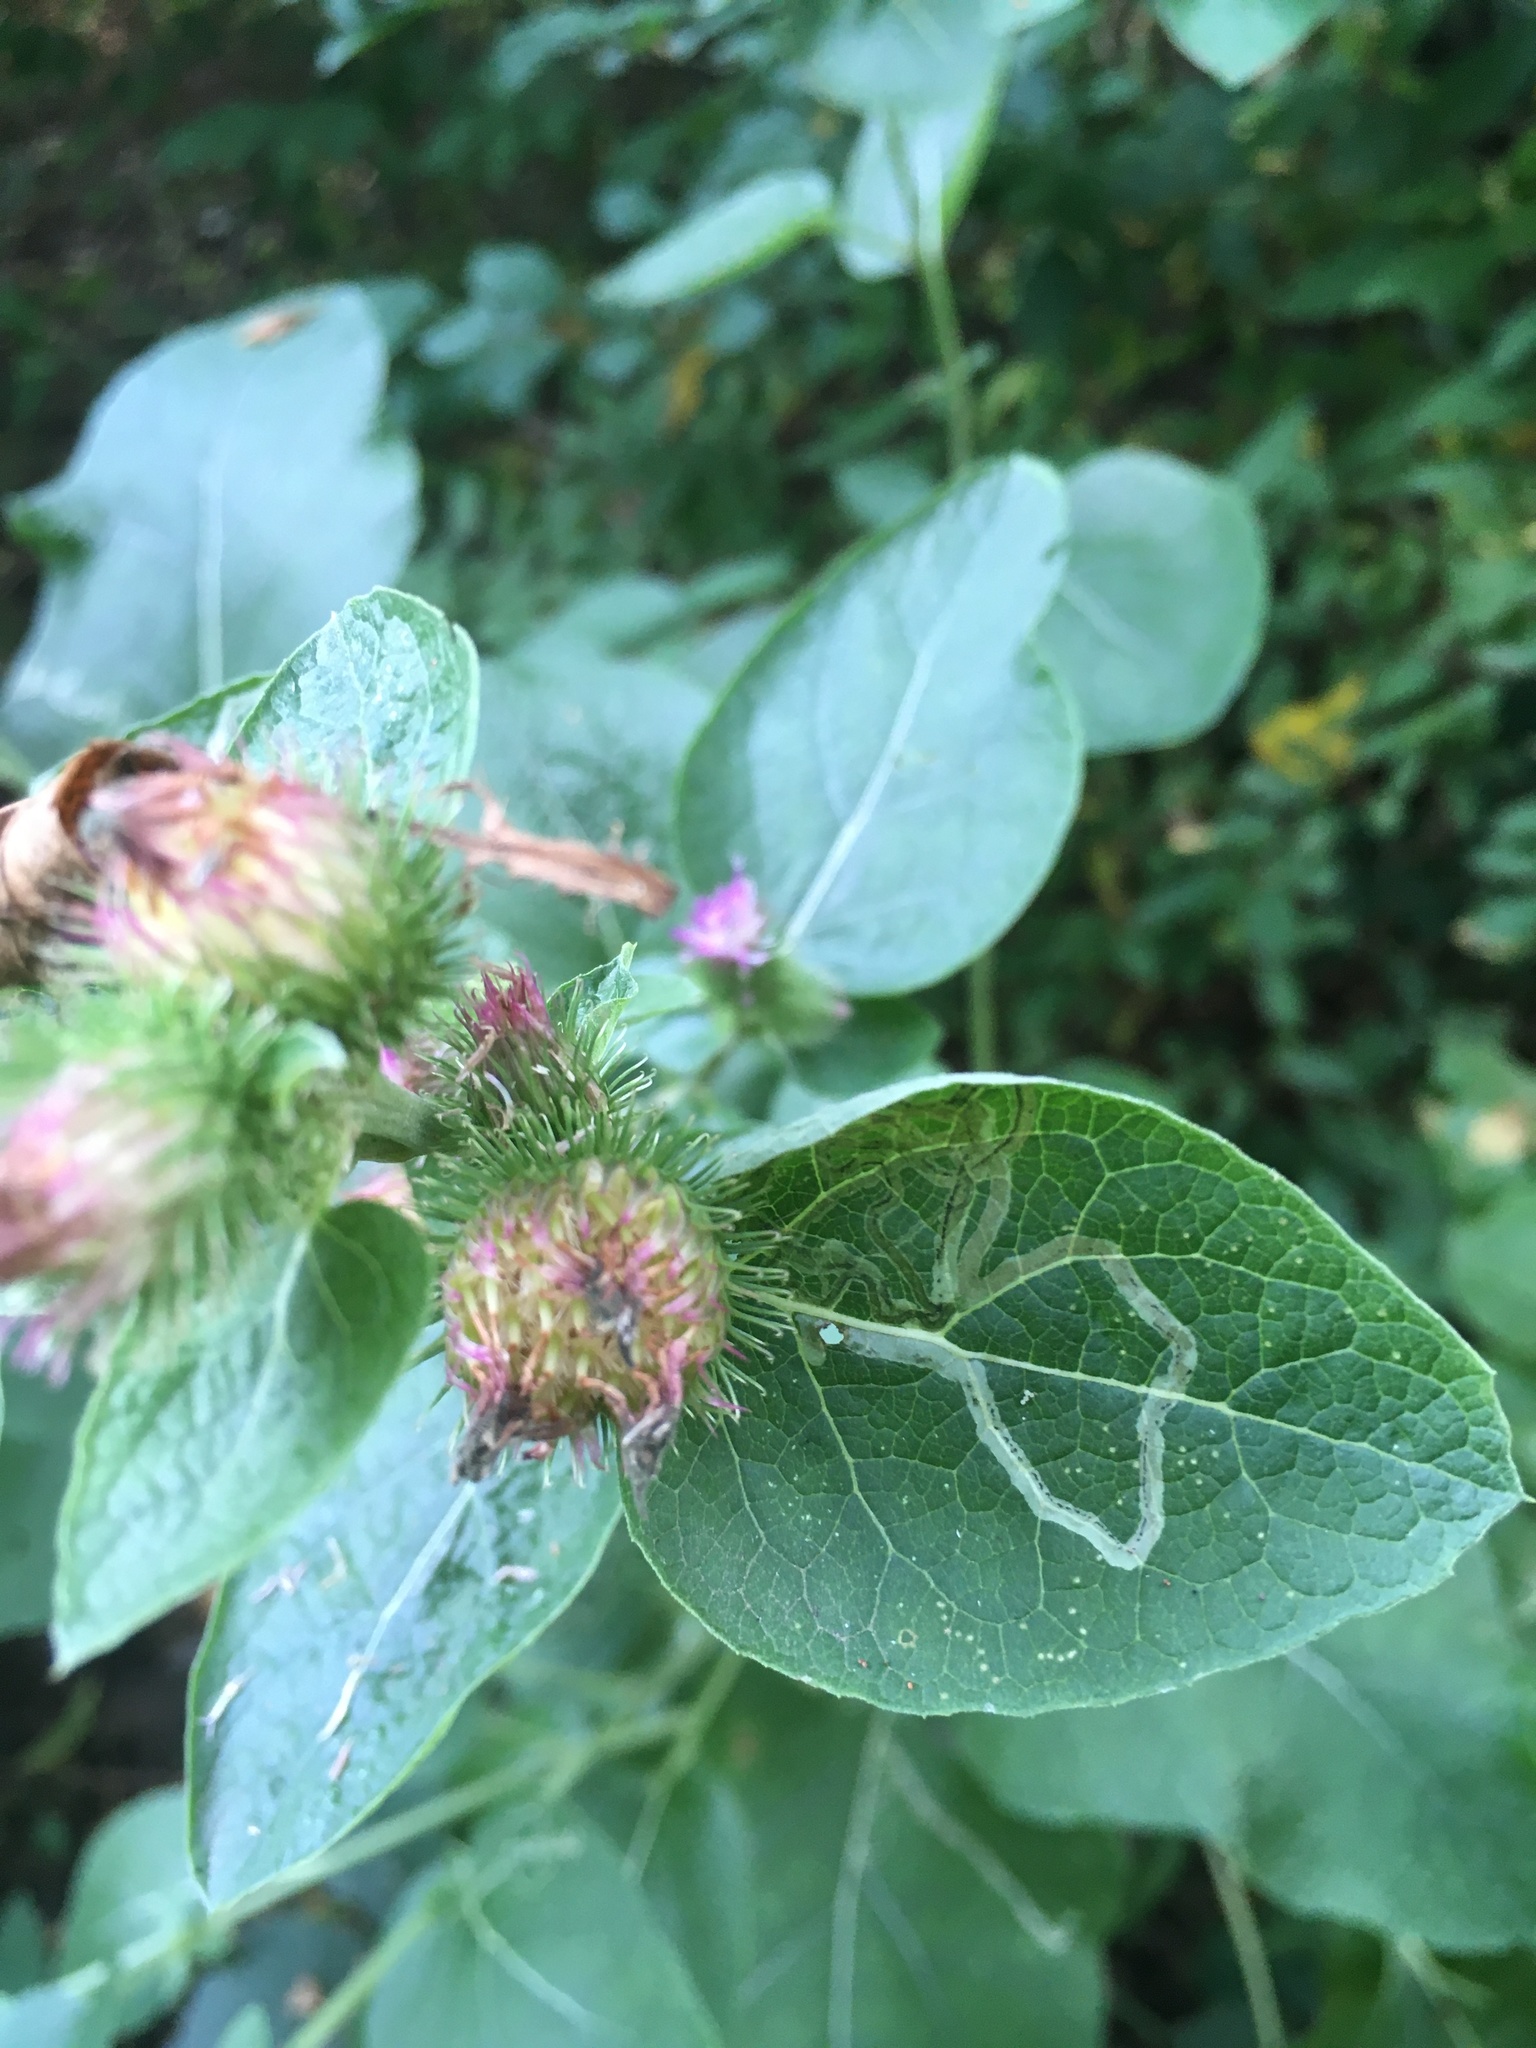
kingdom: Animalia
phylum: Arthropoda
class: Insecta
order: Diptera
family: Agromyzidae
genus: Liriomyza
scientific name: Liriomyza arctii
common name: Burdock leafminer
